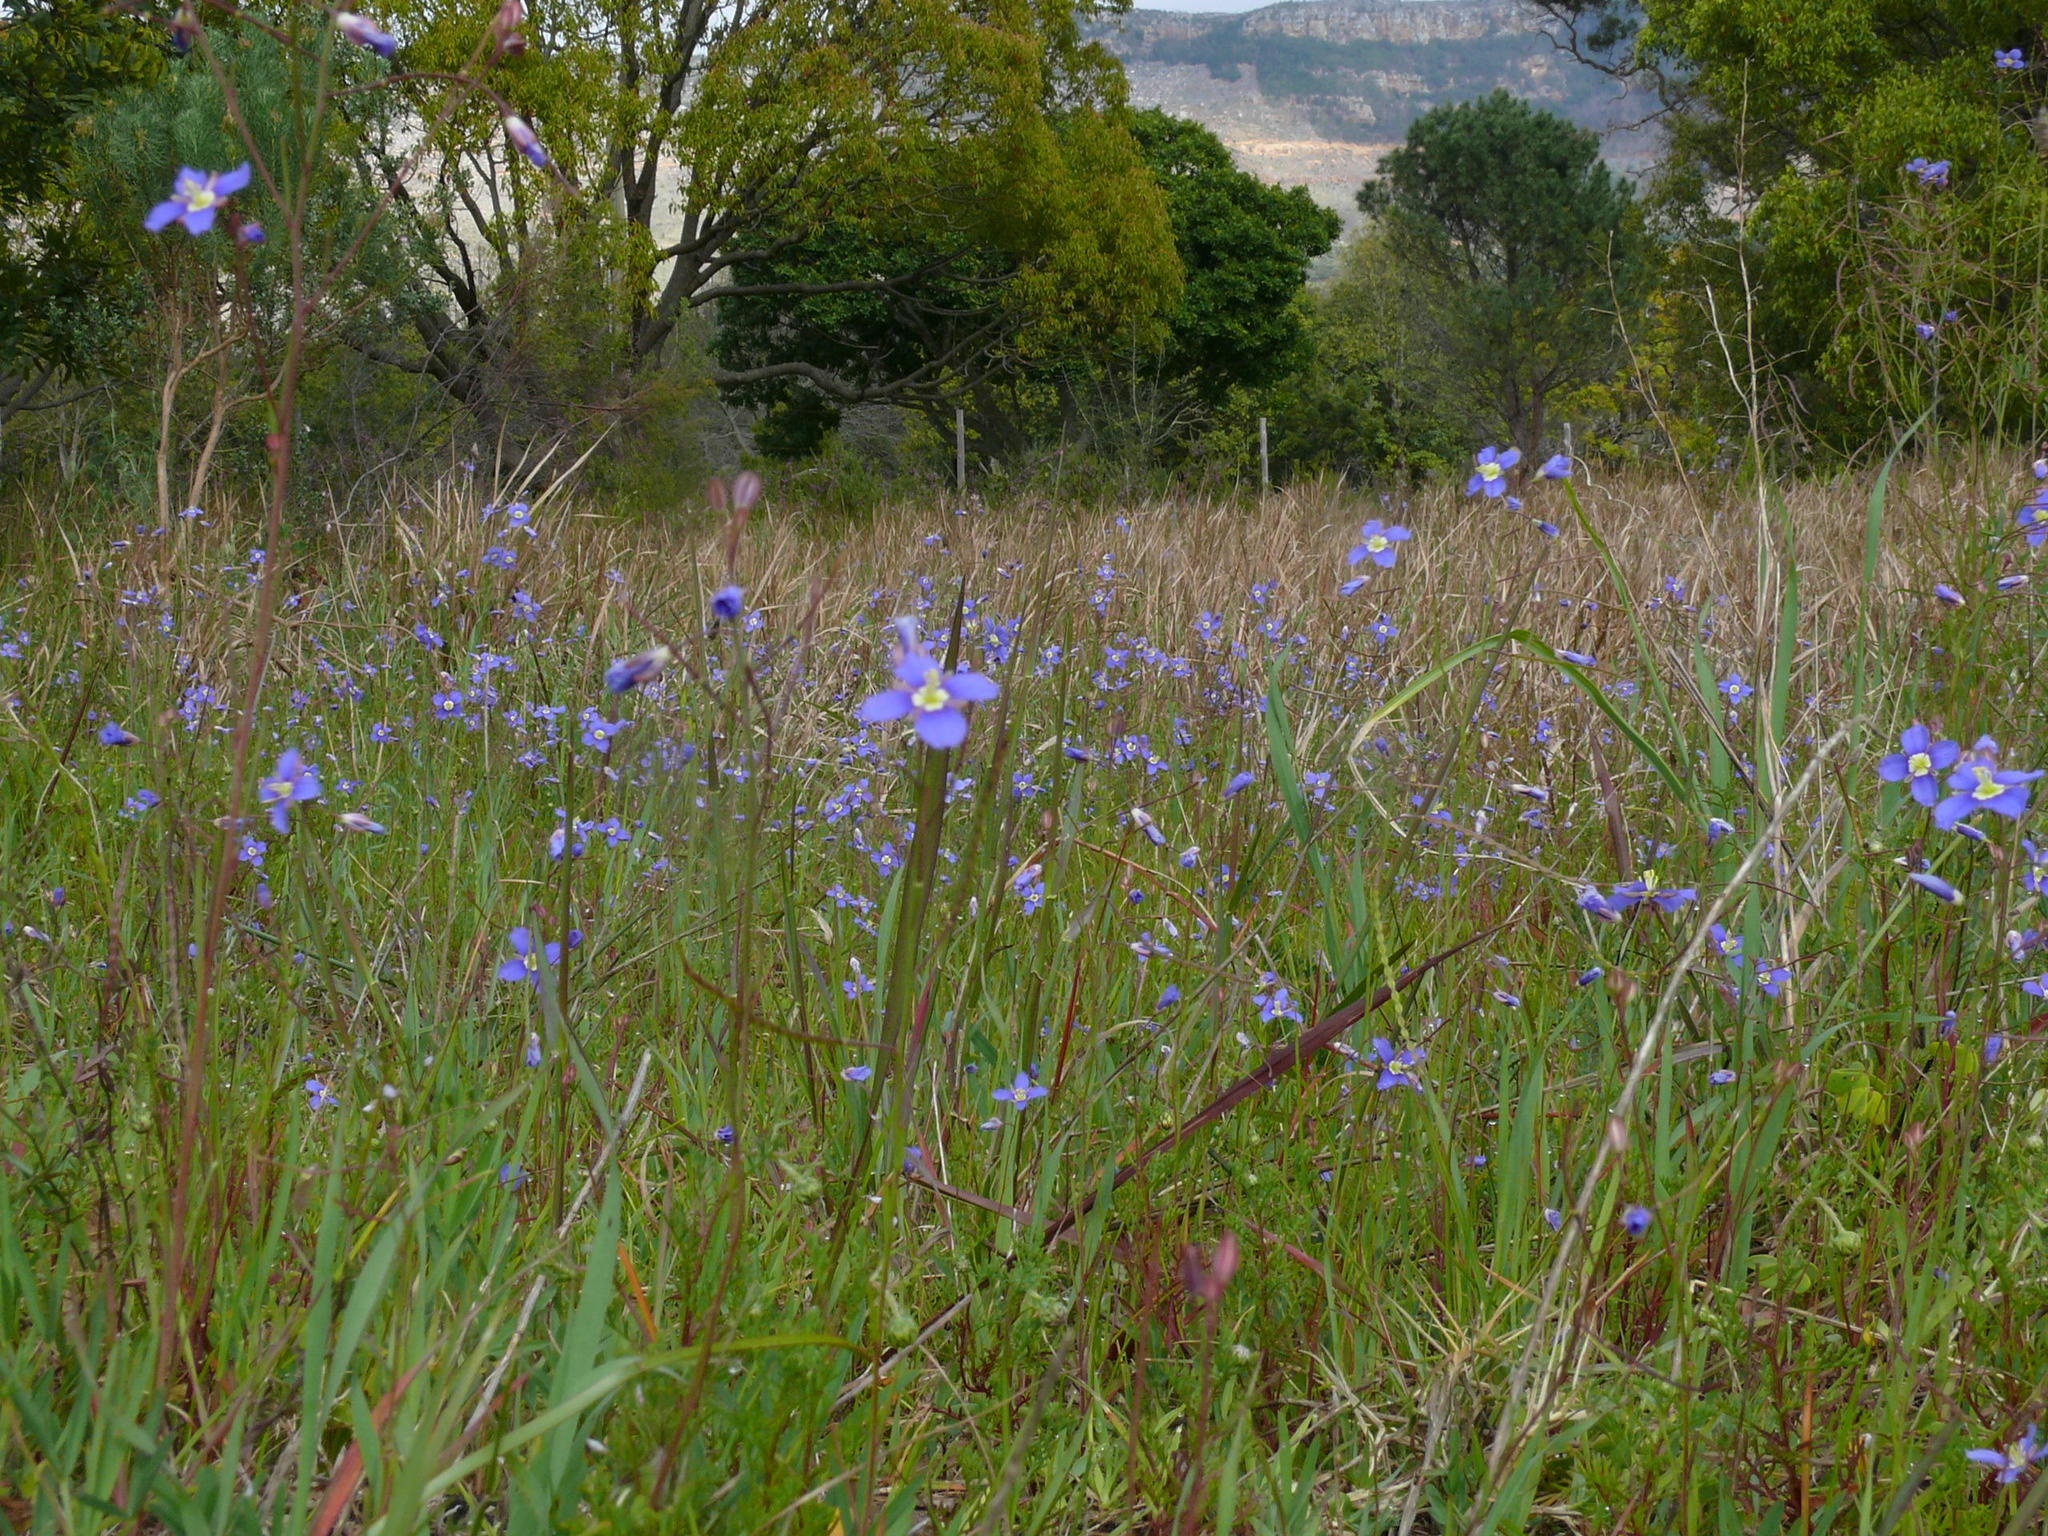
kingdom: Plantae
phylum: Tracheophyta
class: Magnoliopsida
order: Brassicales
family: Brassicaceae
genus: Heliophila
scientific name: Heliophila coronopifolia
